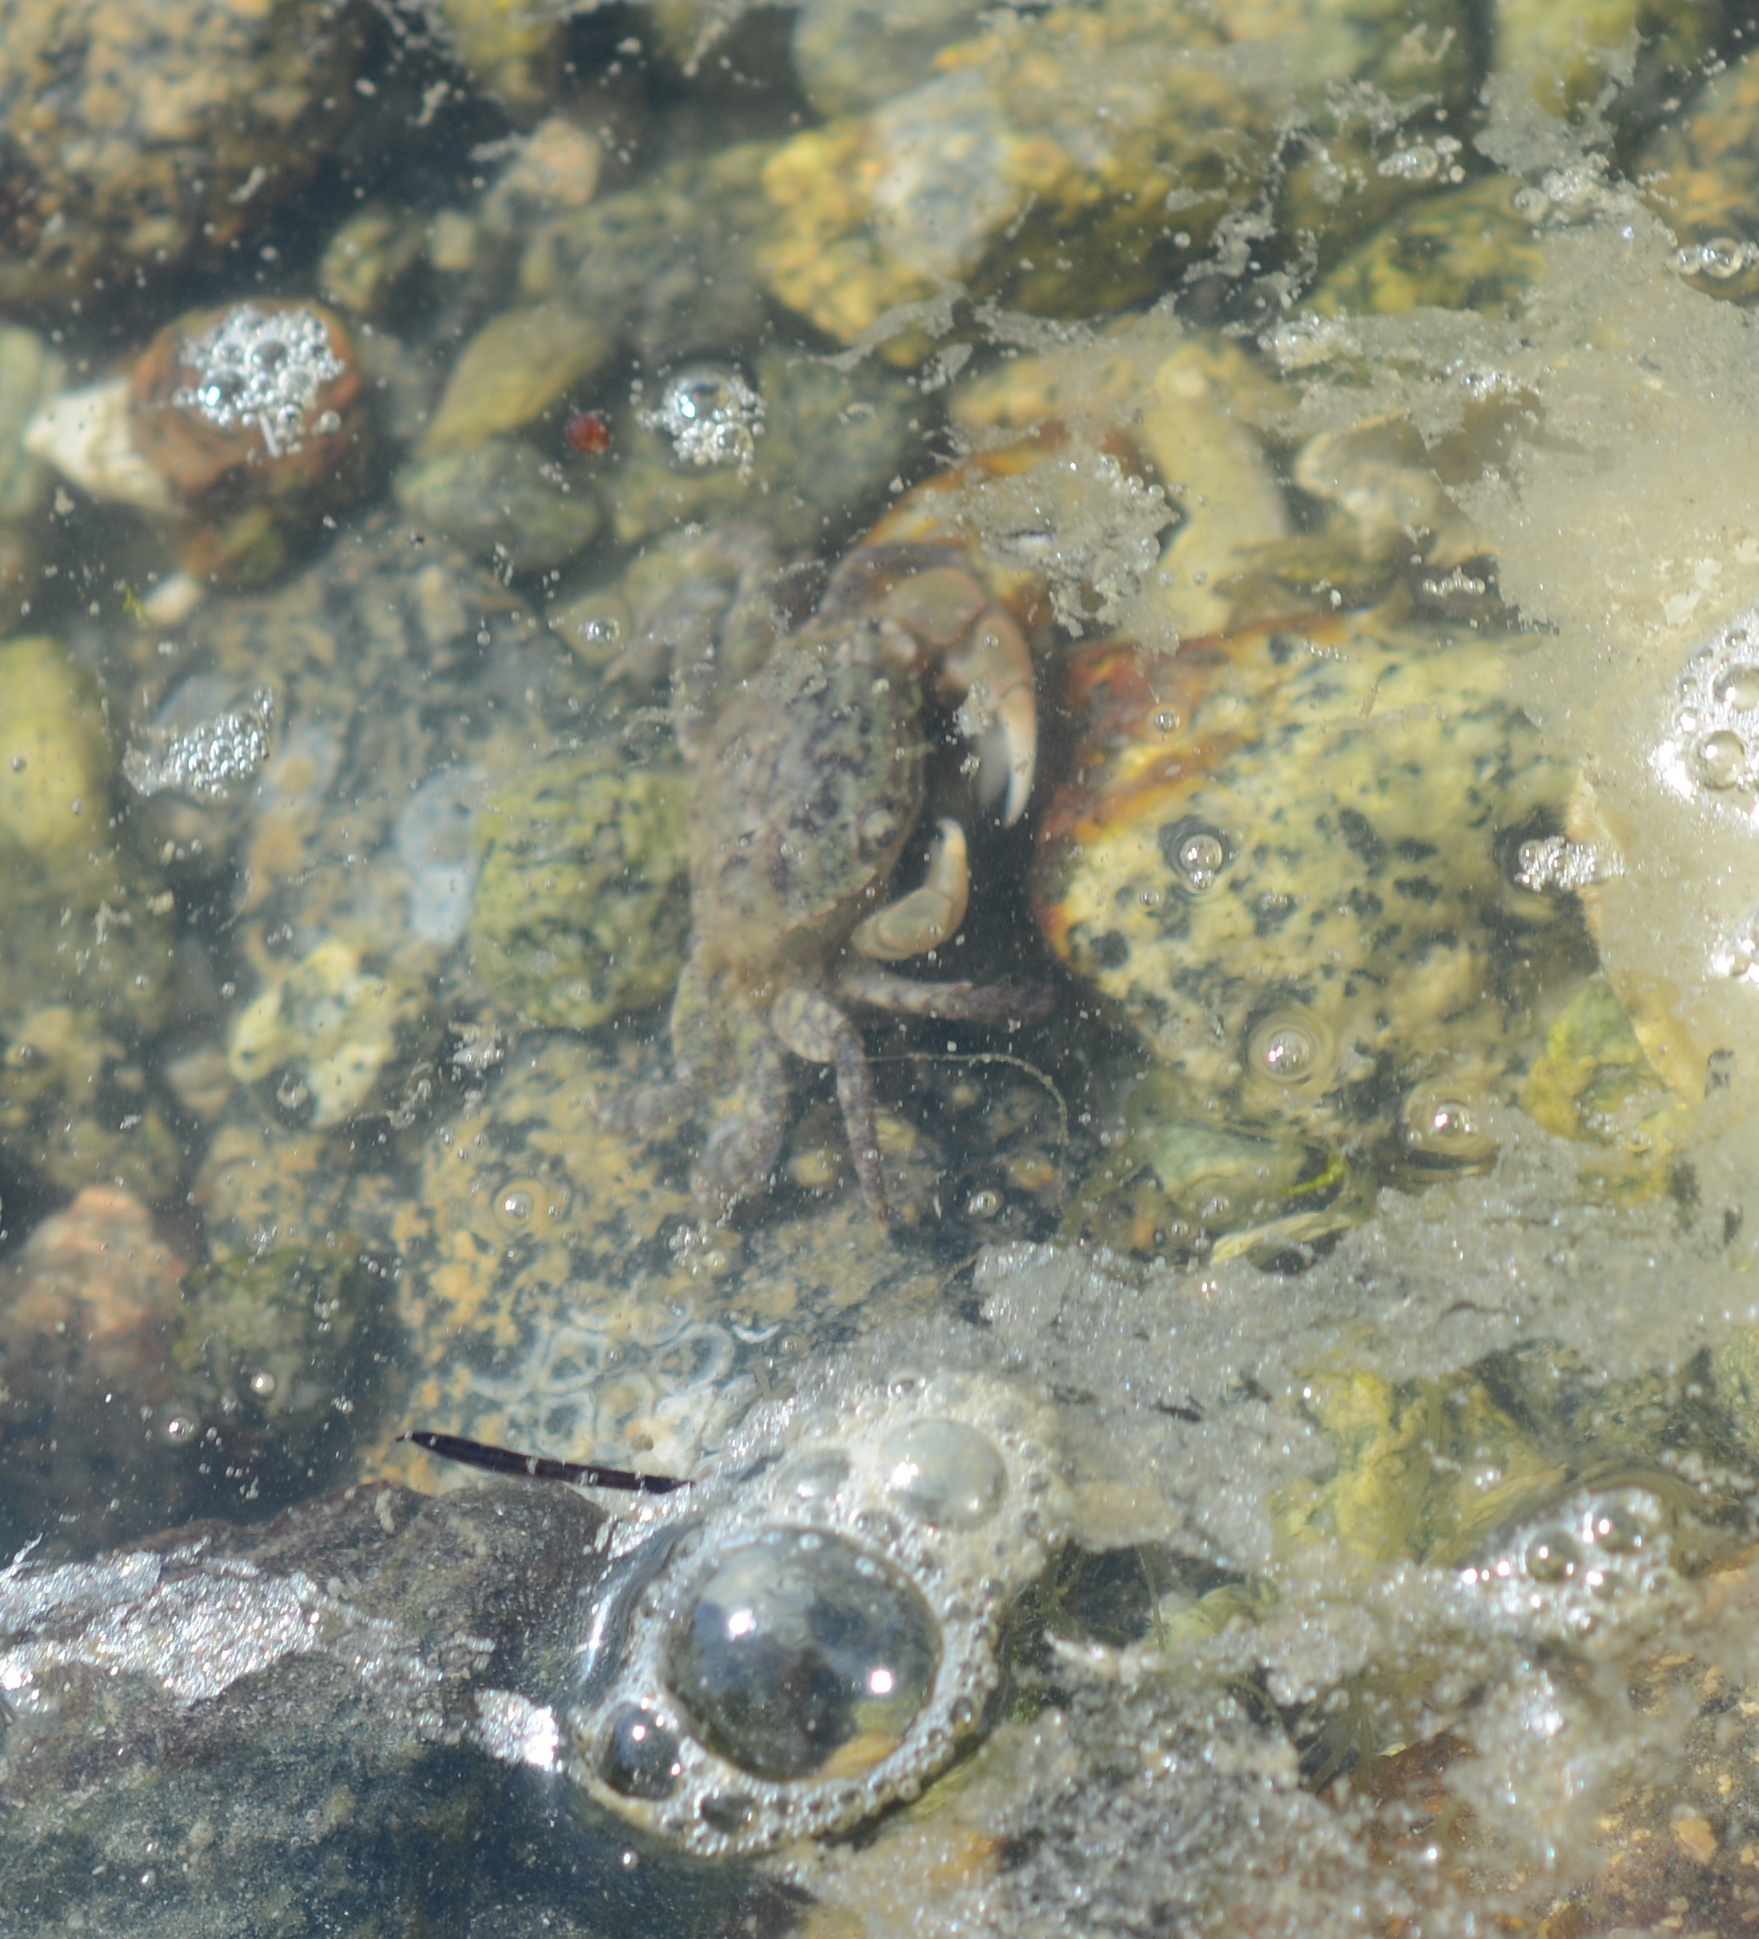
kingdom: Animalia
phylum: Arthropoda
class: Malacostraca
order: Decapoda
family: Varunidae
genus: Hemigrapsus
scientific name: Hemigrapsus oregonensis
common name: Yellow shore crab
